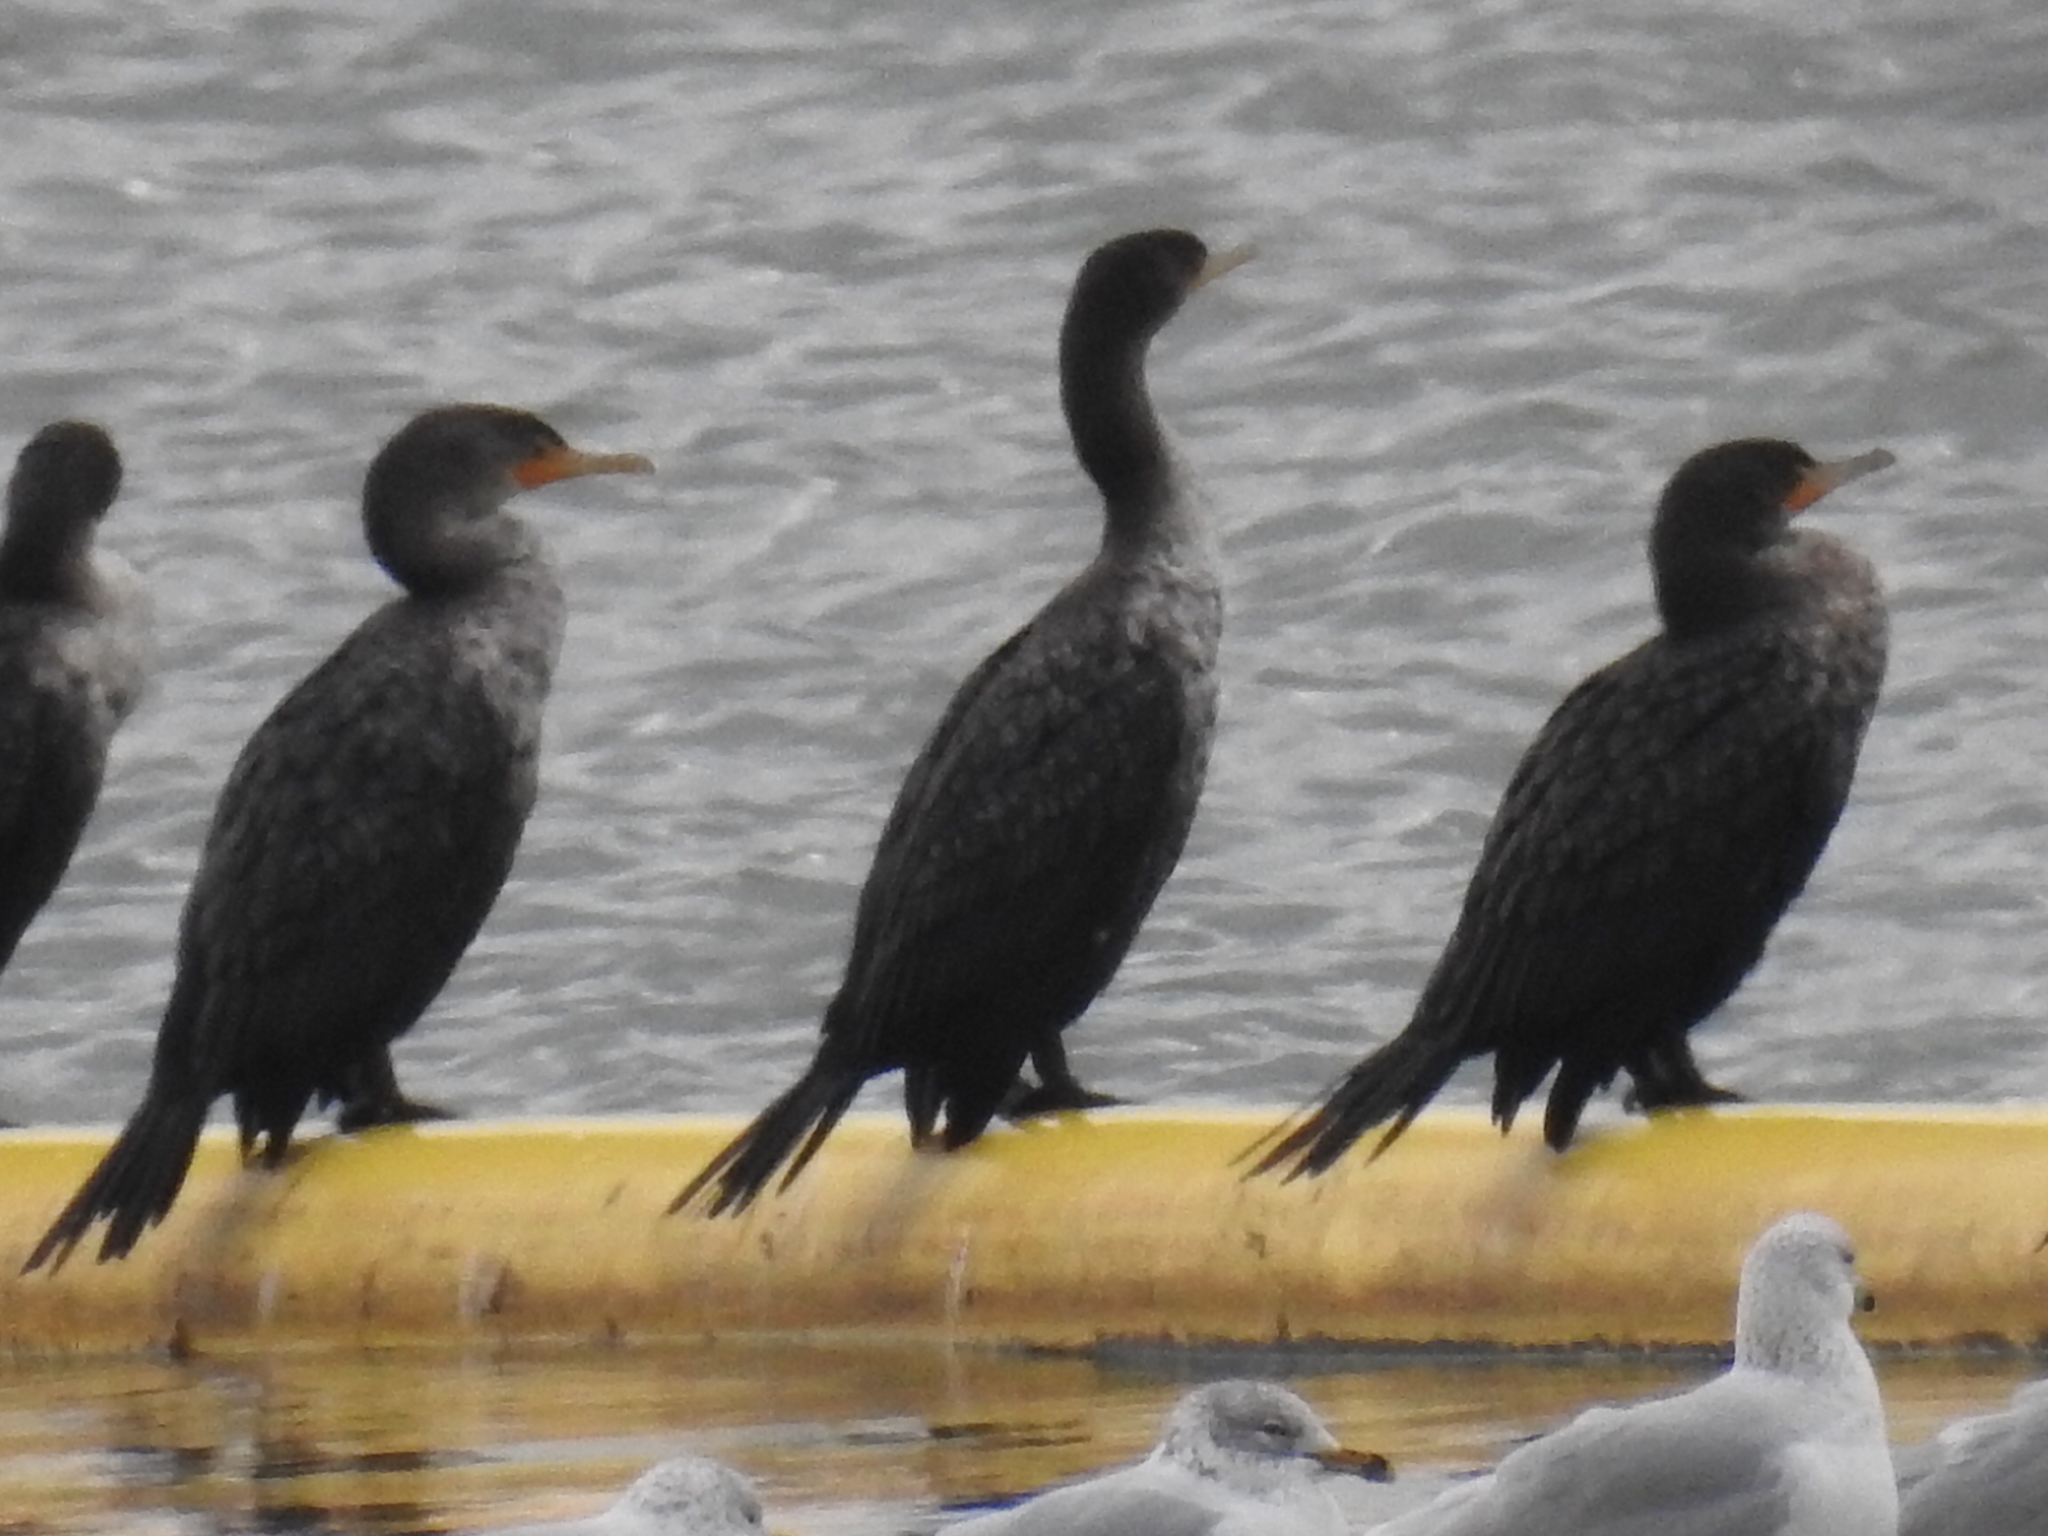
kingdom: Animalia
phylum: Chordata
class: Aves
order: Suliformes
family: Phalacrocoracidae
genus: Phalacrocorax
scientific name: Phalacrocorax auritus
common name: Double-crested cormorant
